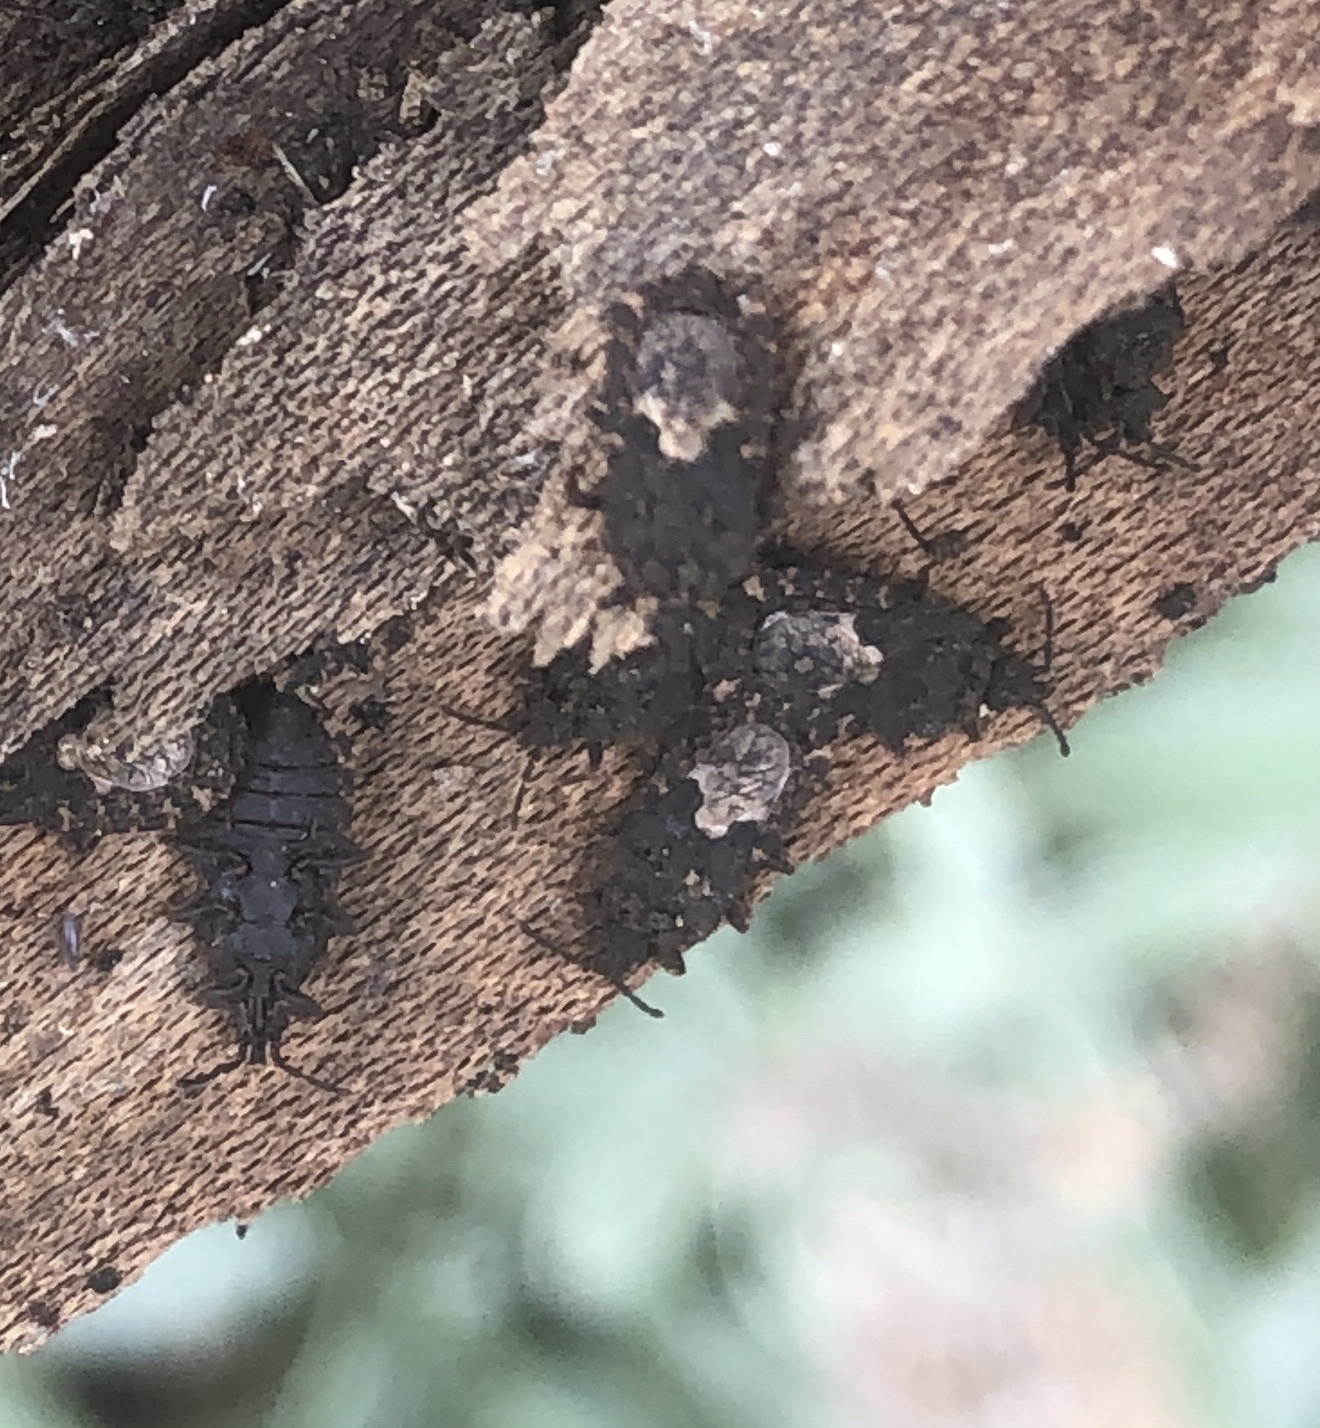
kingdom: Animalia
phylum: Arthropoda
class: Insecta
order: Hemiptera
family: Aradidae
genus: Mezira
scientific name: Mezira
